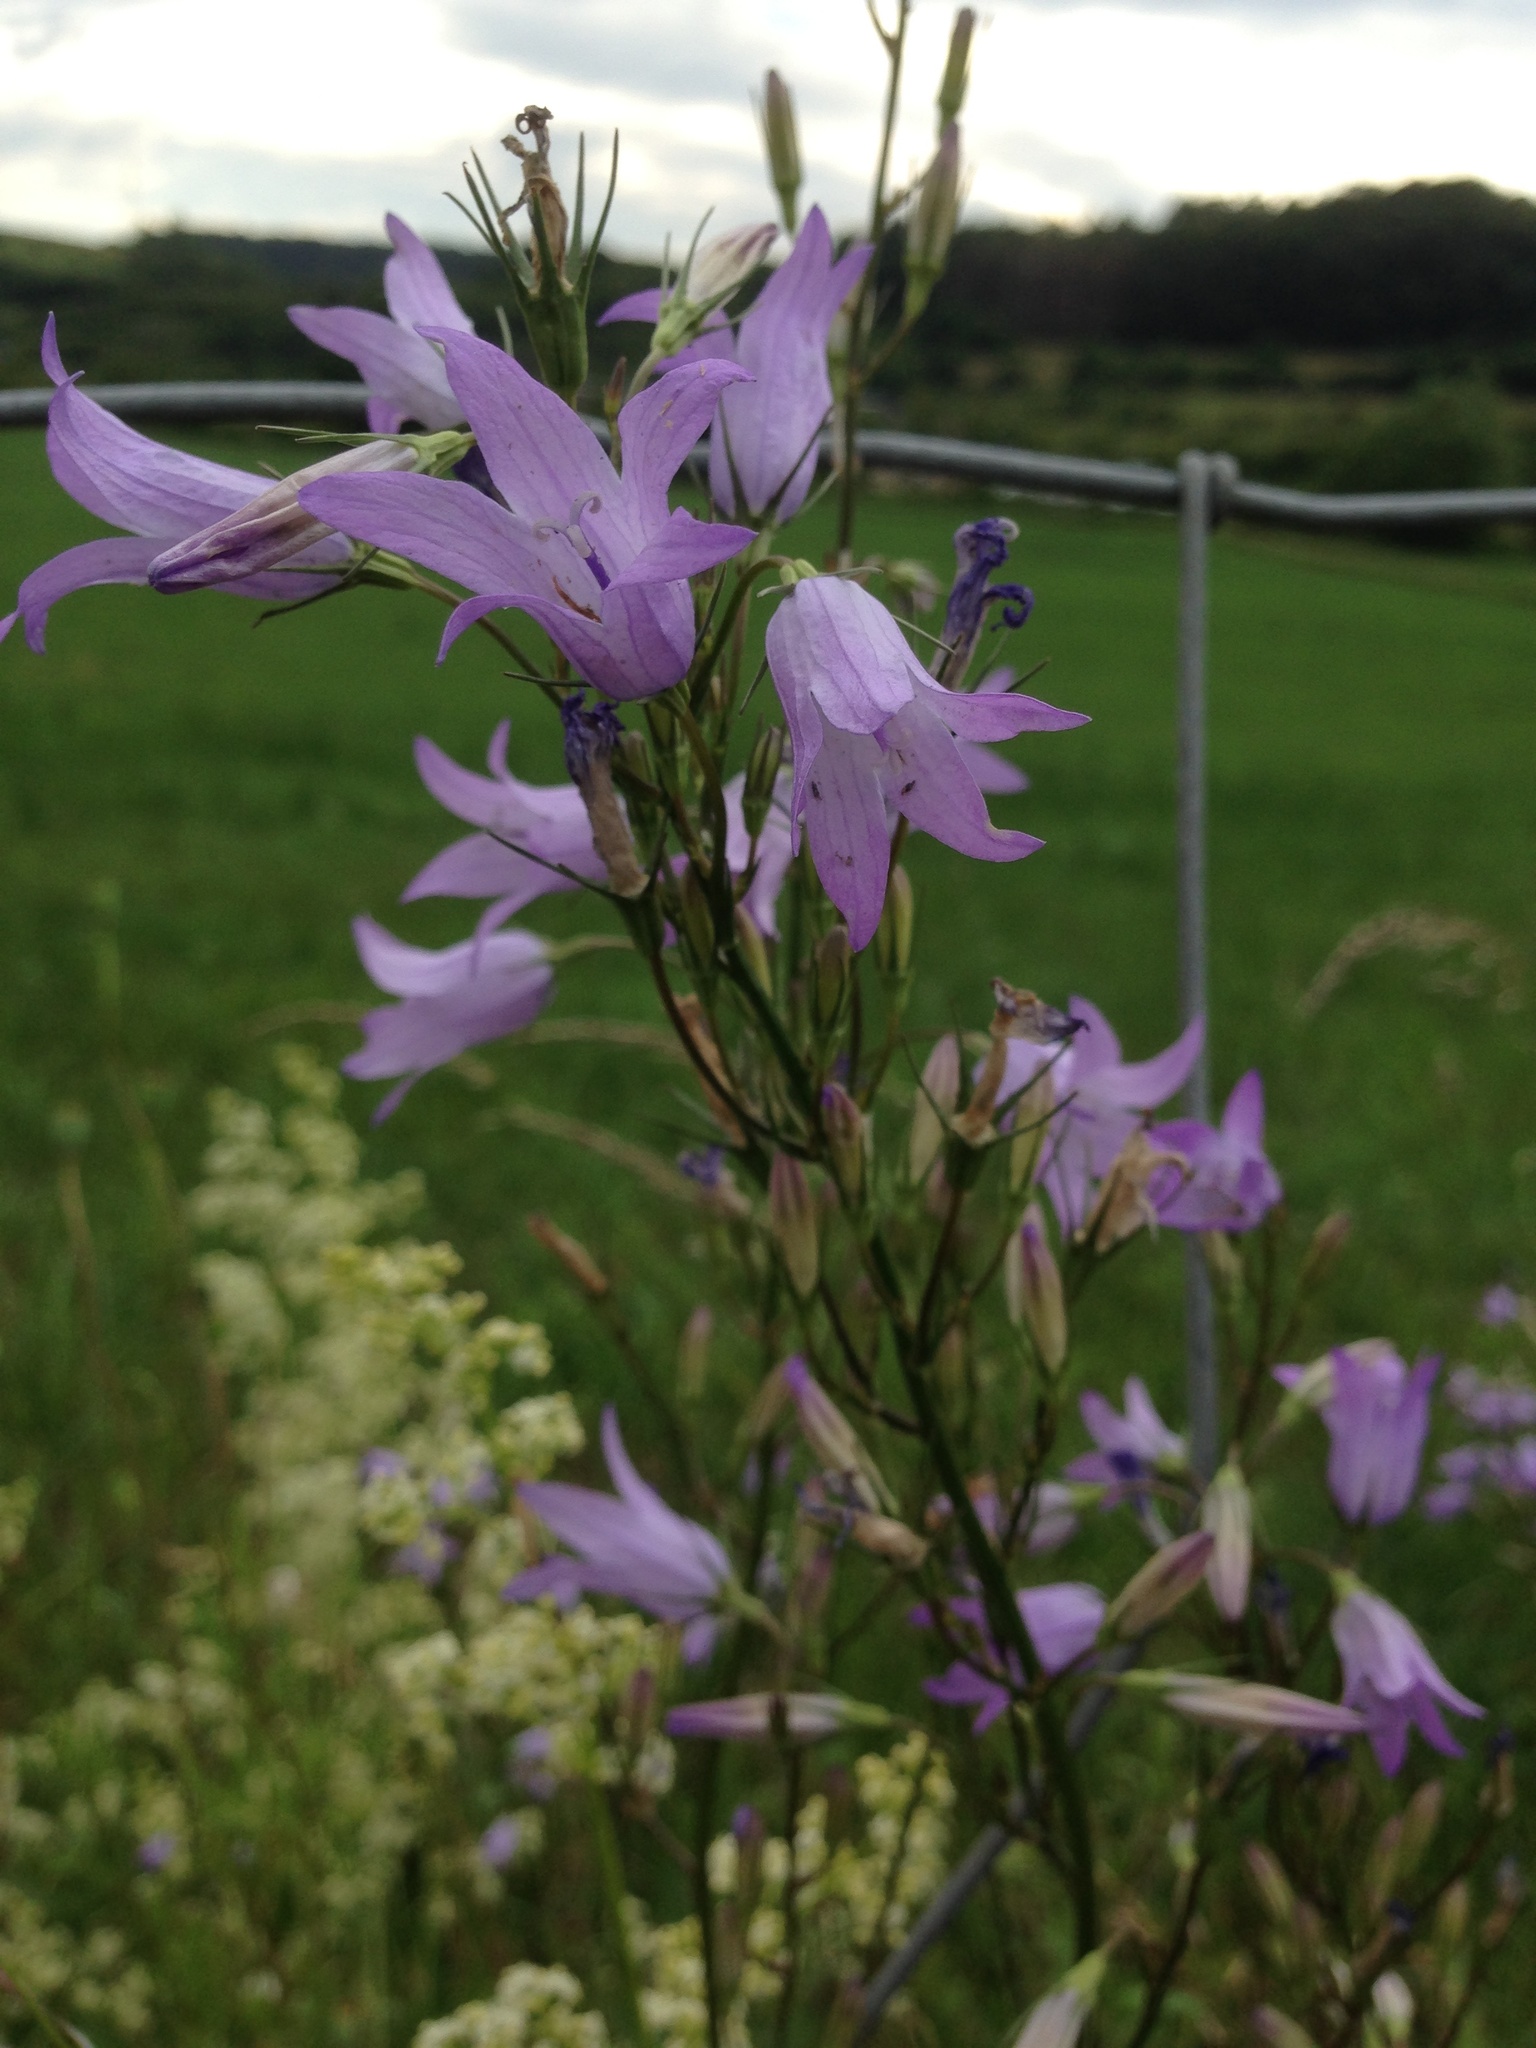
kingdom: Plantae
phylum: Tracheophyta
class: Magnoliopsida
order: Asterales
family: Campanulaceae
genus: Campanula
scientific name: Campanula rapunculus
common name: Rampion bellflower
